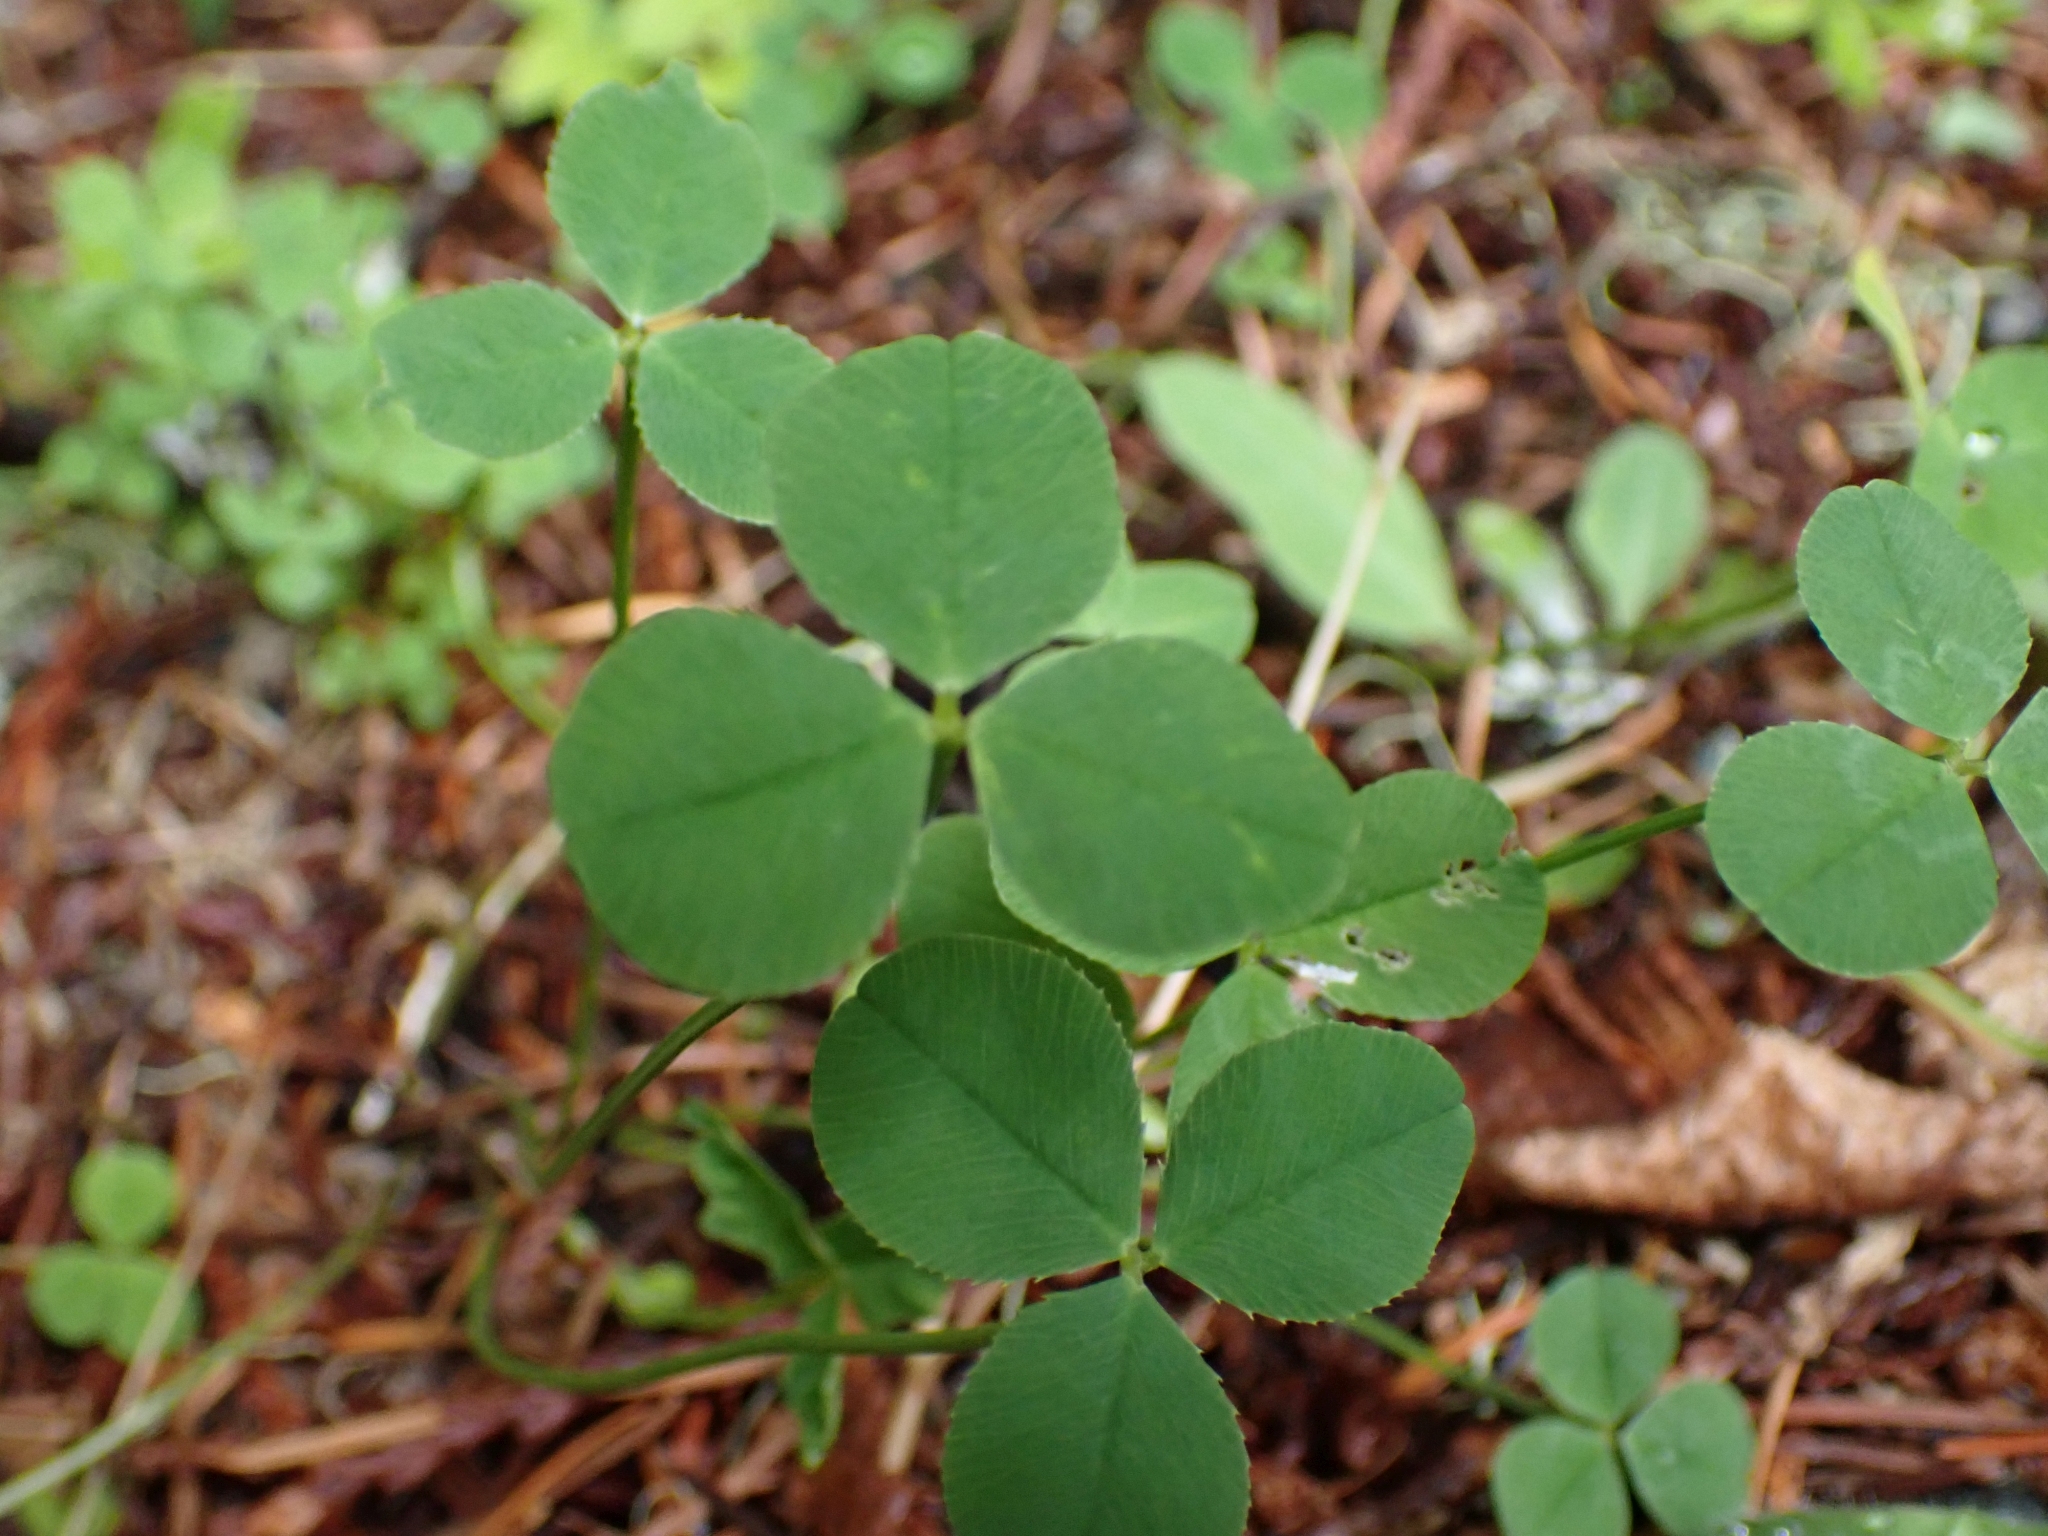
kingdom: Plantae
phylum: Tracheophyta
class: Magnoliopsida
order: Fabales
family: Fabaceae
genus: Trifolium
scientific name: Trifolium repens
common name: White clover
